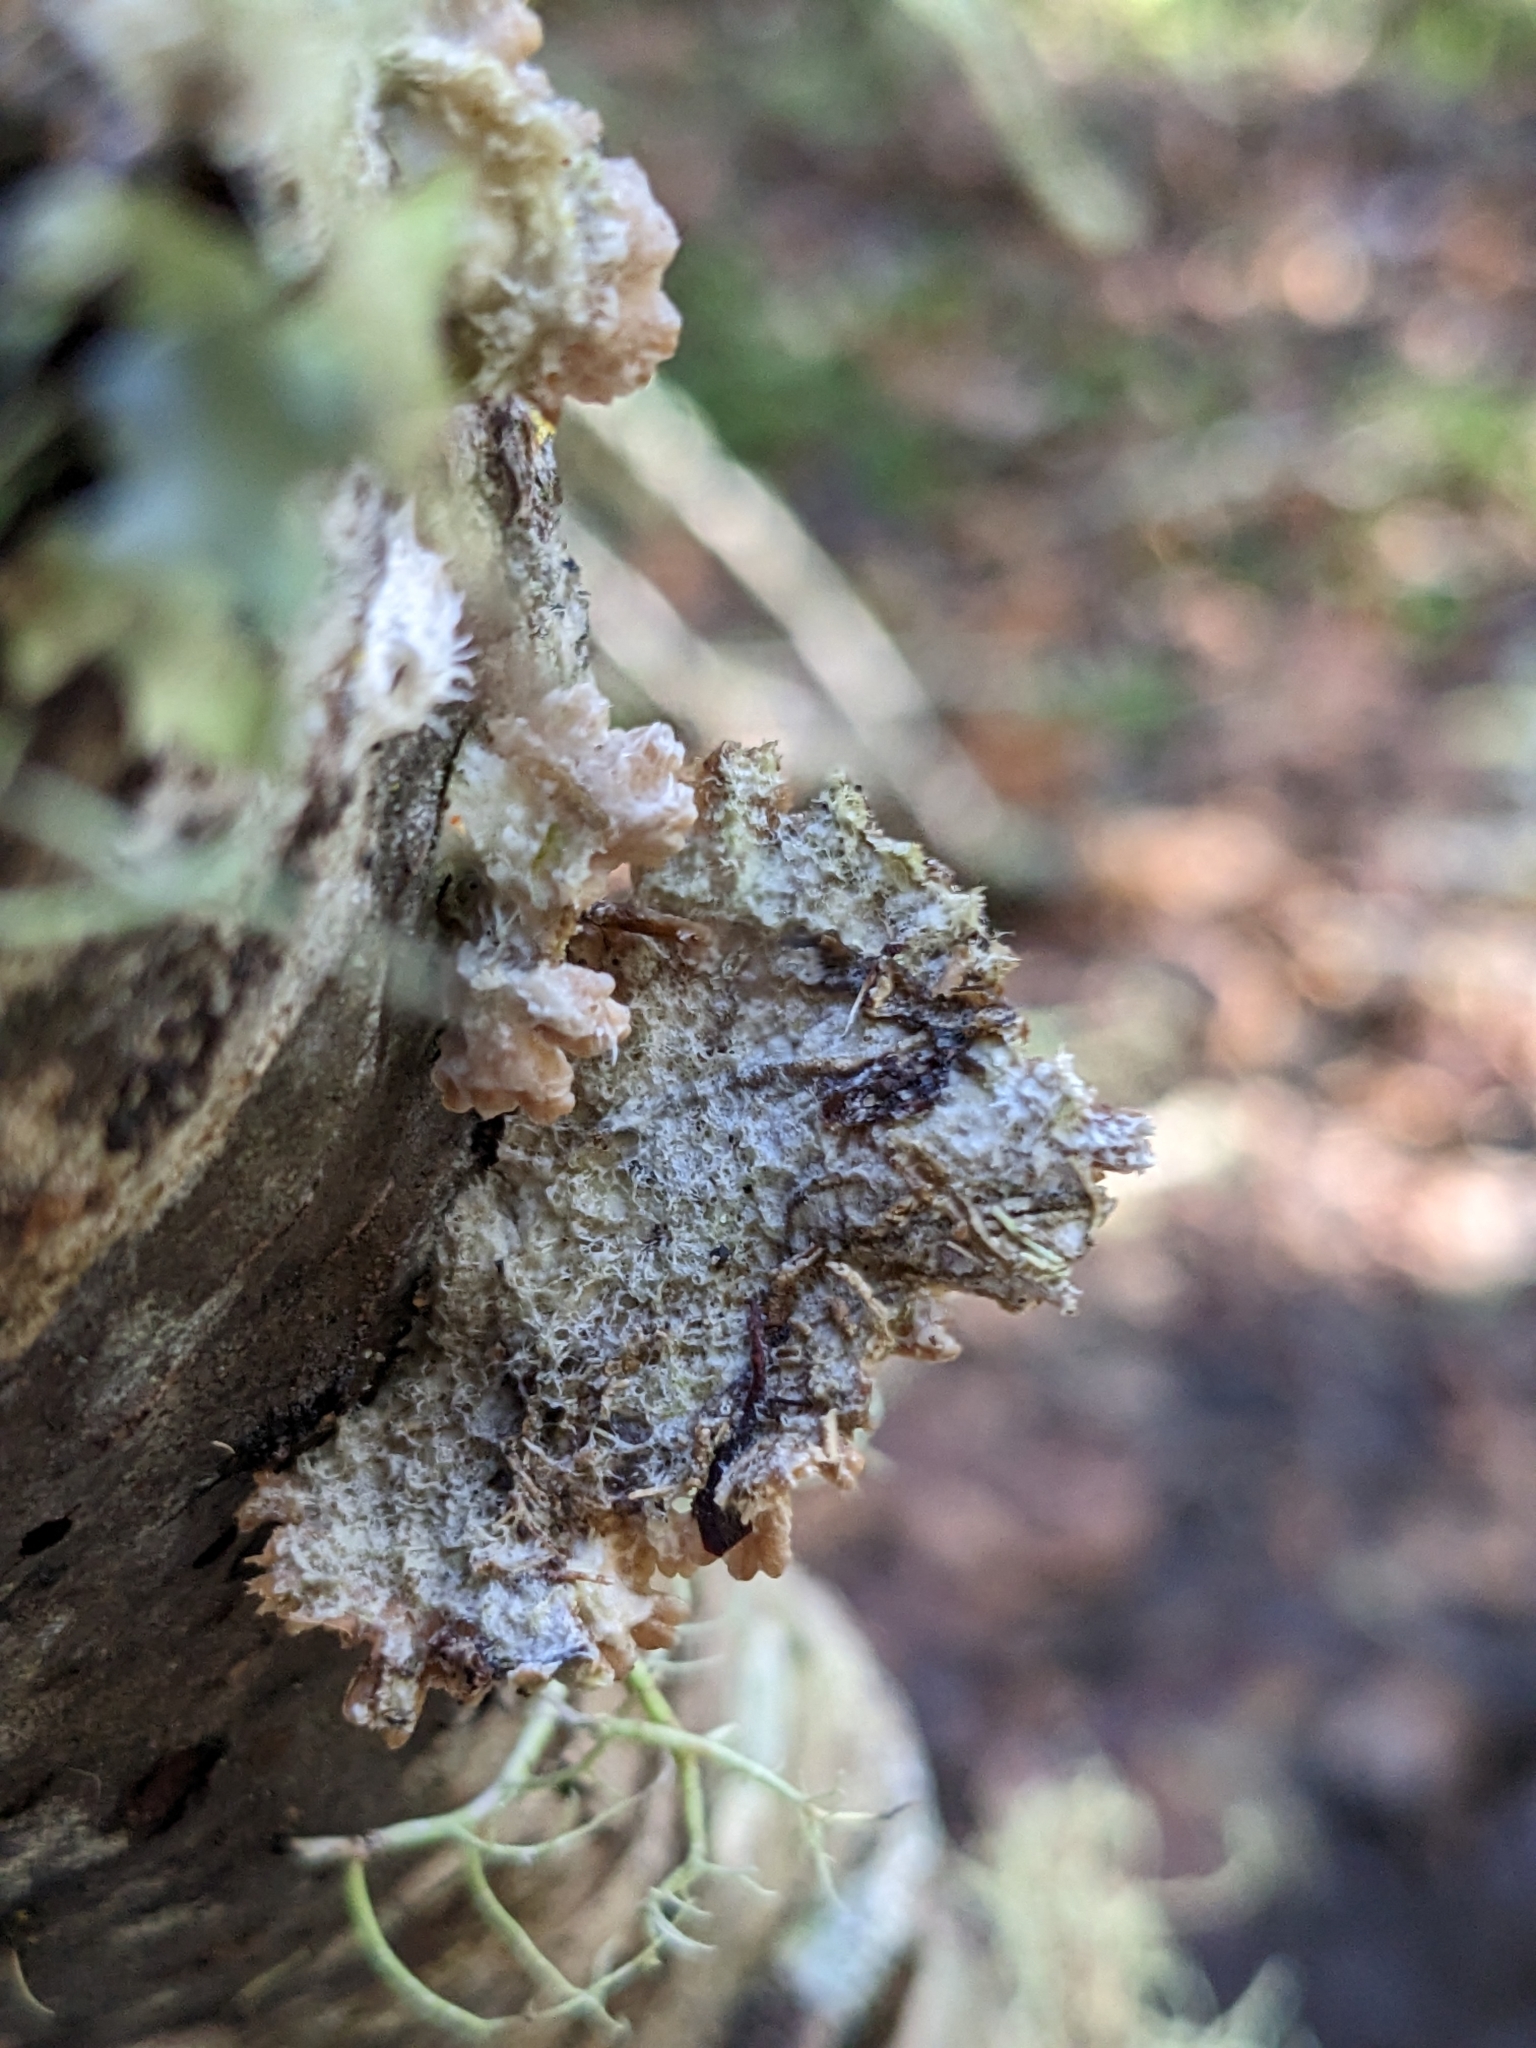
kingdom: Fungi
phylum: Basidiomycota
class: Agaricomycetes
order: Agaricales
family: Schizophyllaceae
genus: Schizophyllum
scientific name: Schizophyllum commune
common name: Common porecrust
